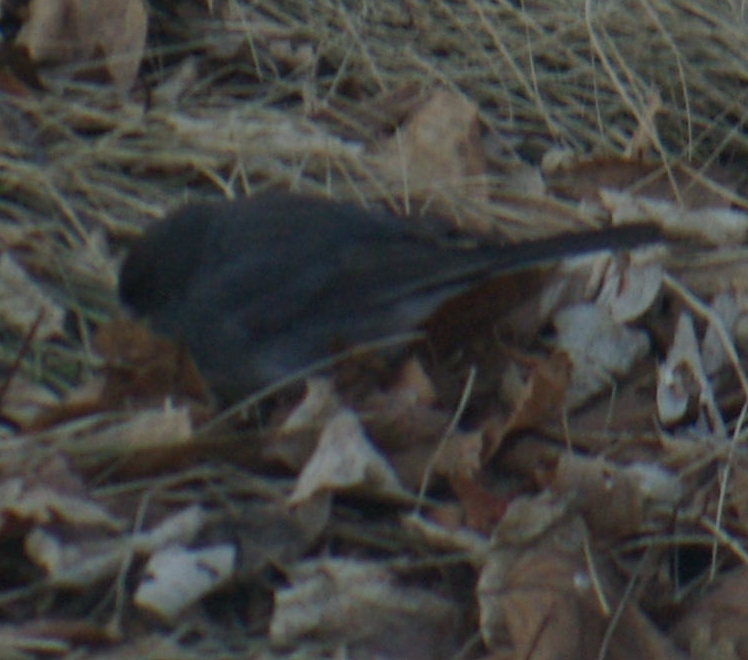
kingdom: Animalia
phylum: Chordata
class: Aves
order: Passeriformes
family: Passerellidae
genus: Junco
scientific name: Junco hyemalis
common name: Dark-eyed junco
